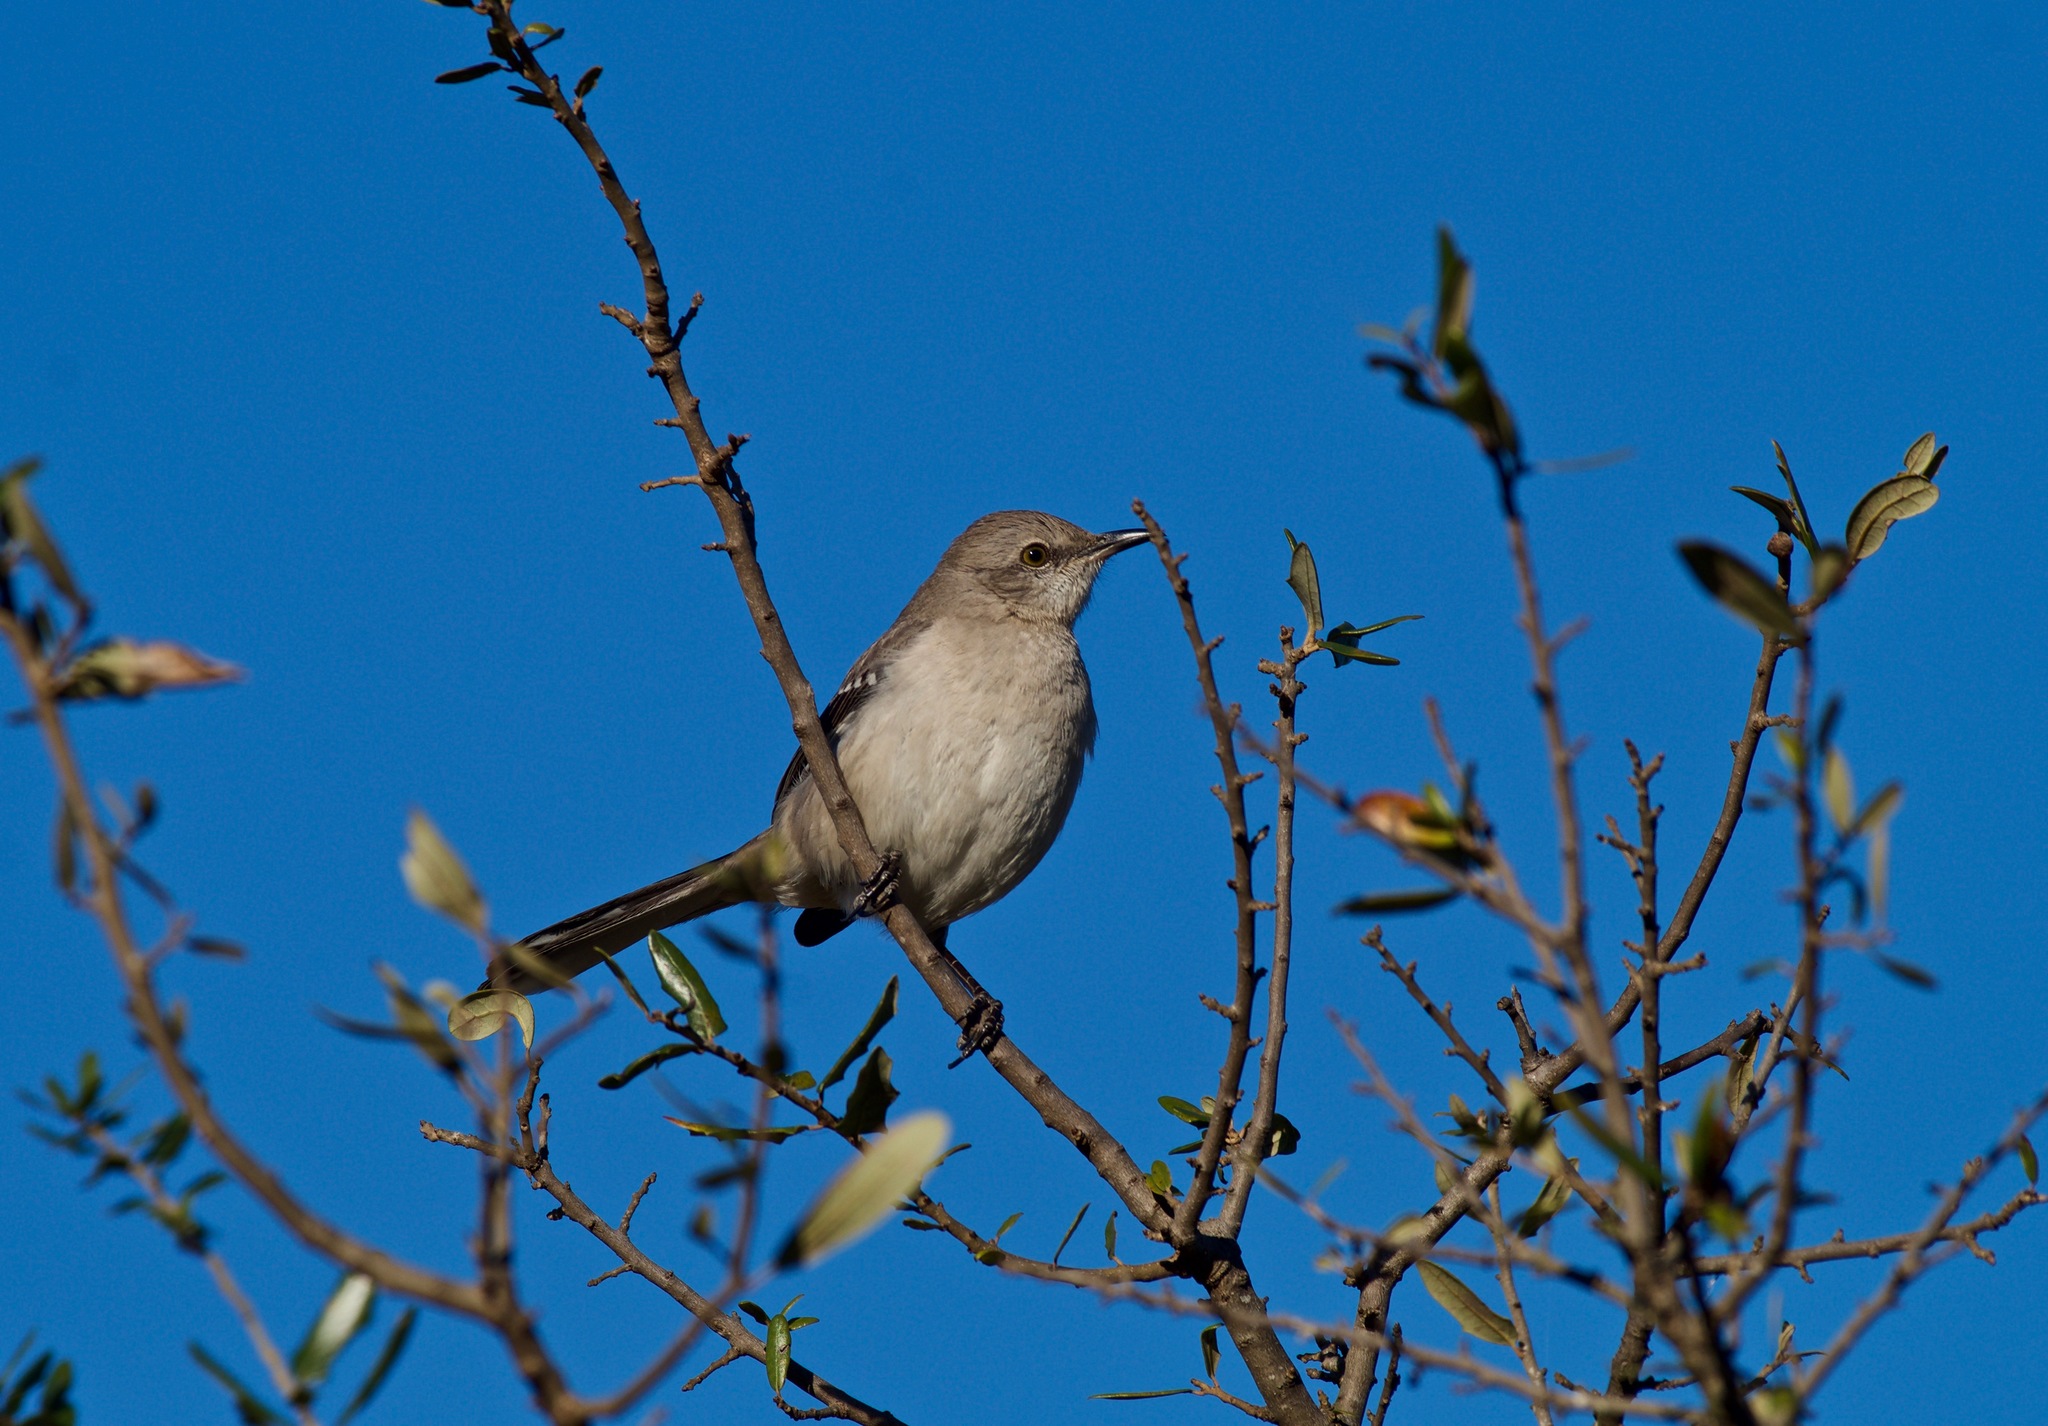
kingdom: Animalia
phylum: Chordata
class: Aves
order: Passeriformes
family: Mimidae
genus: Mimus
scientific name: Mimus polyglottos
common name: Northern mockingbird
